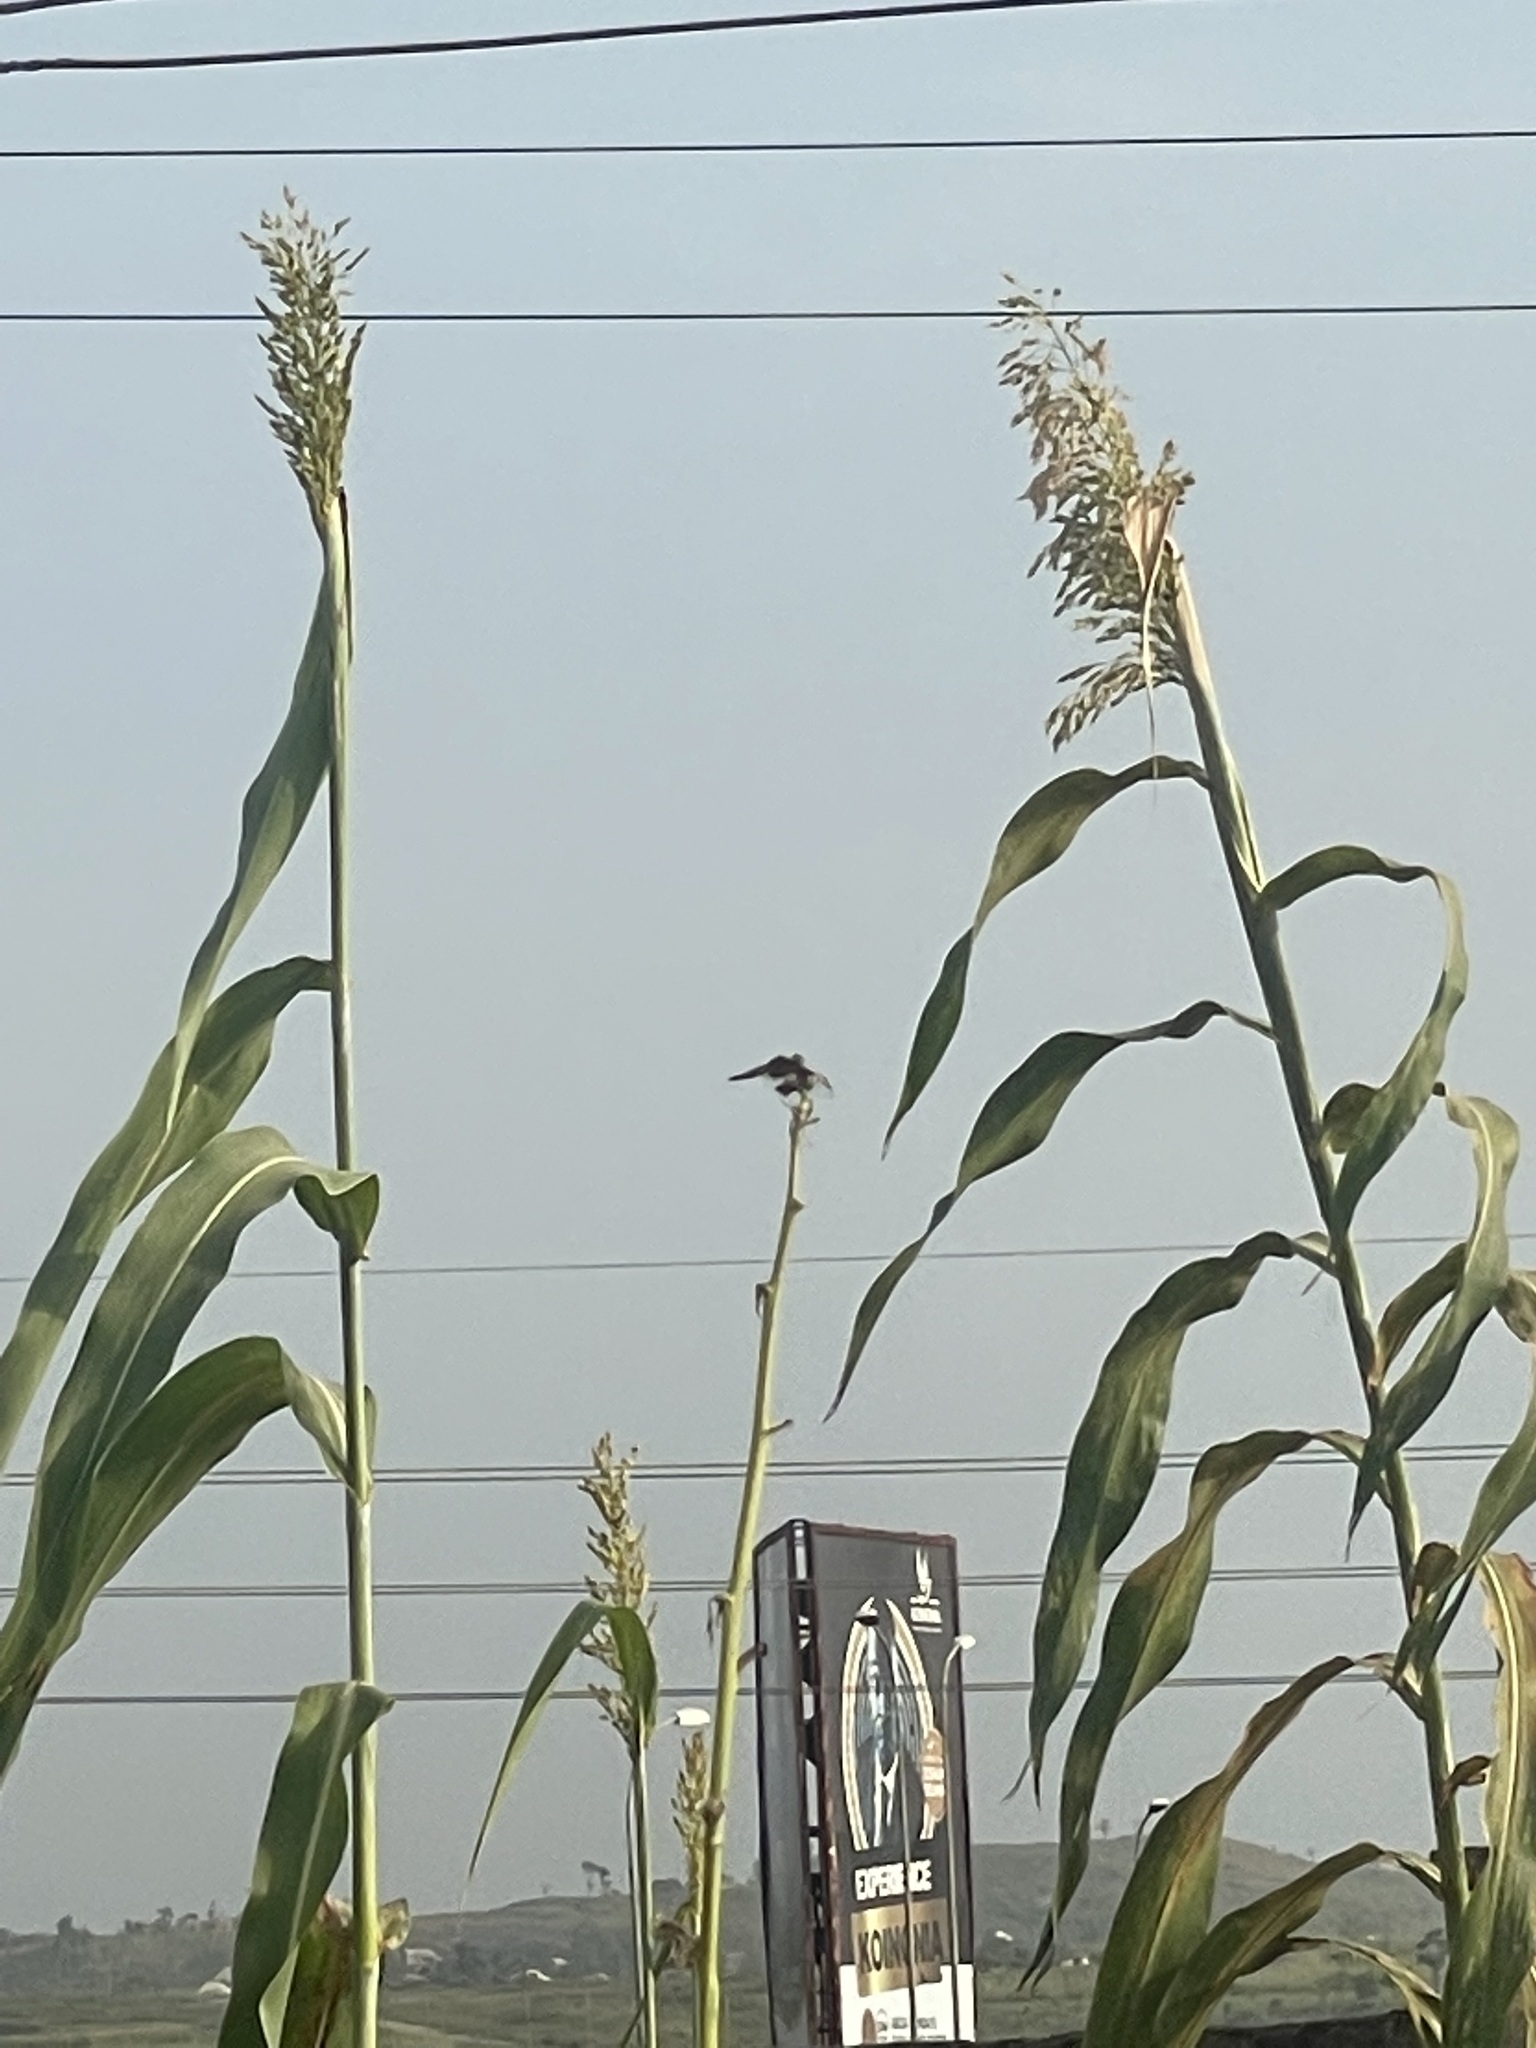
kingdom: Plantae
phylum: Tracheophyta
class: Liliopsida
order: Poales
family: Poaceae
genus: Sorghum
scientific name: Sorghum bicolor
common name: Sorghum
